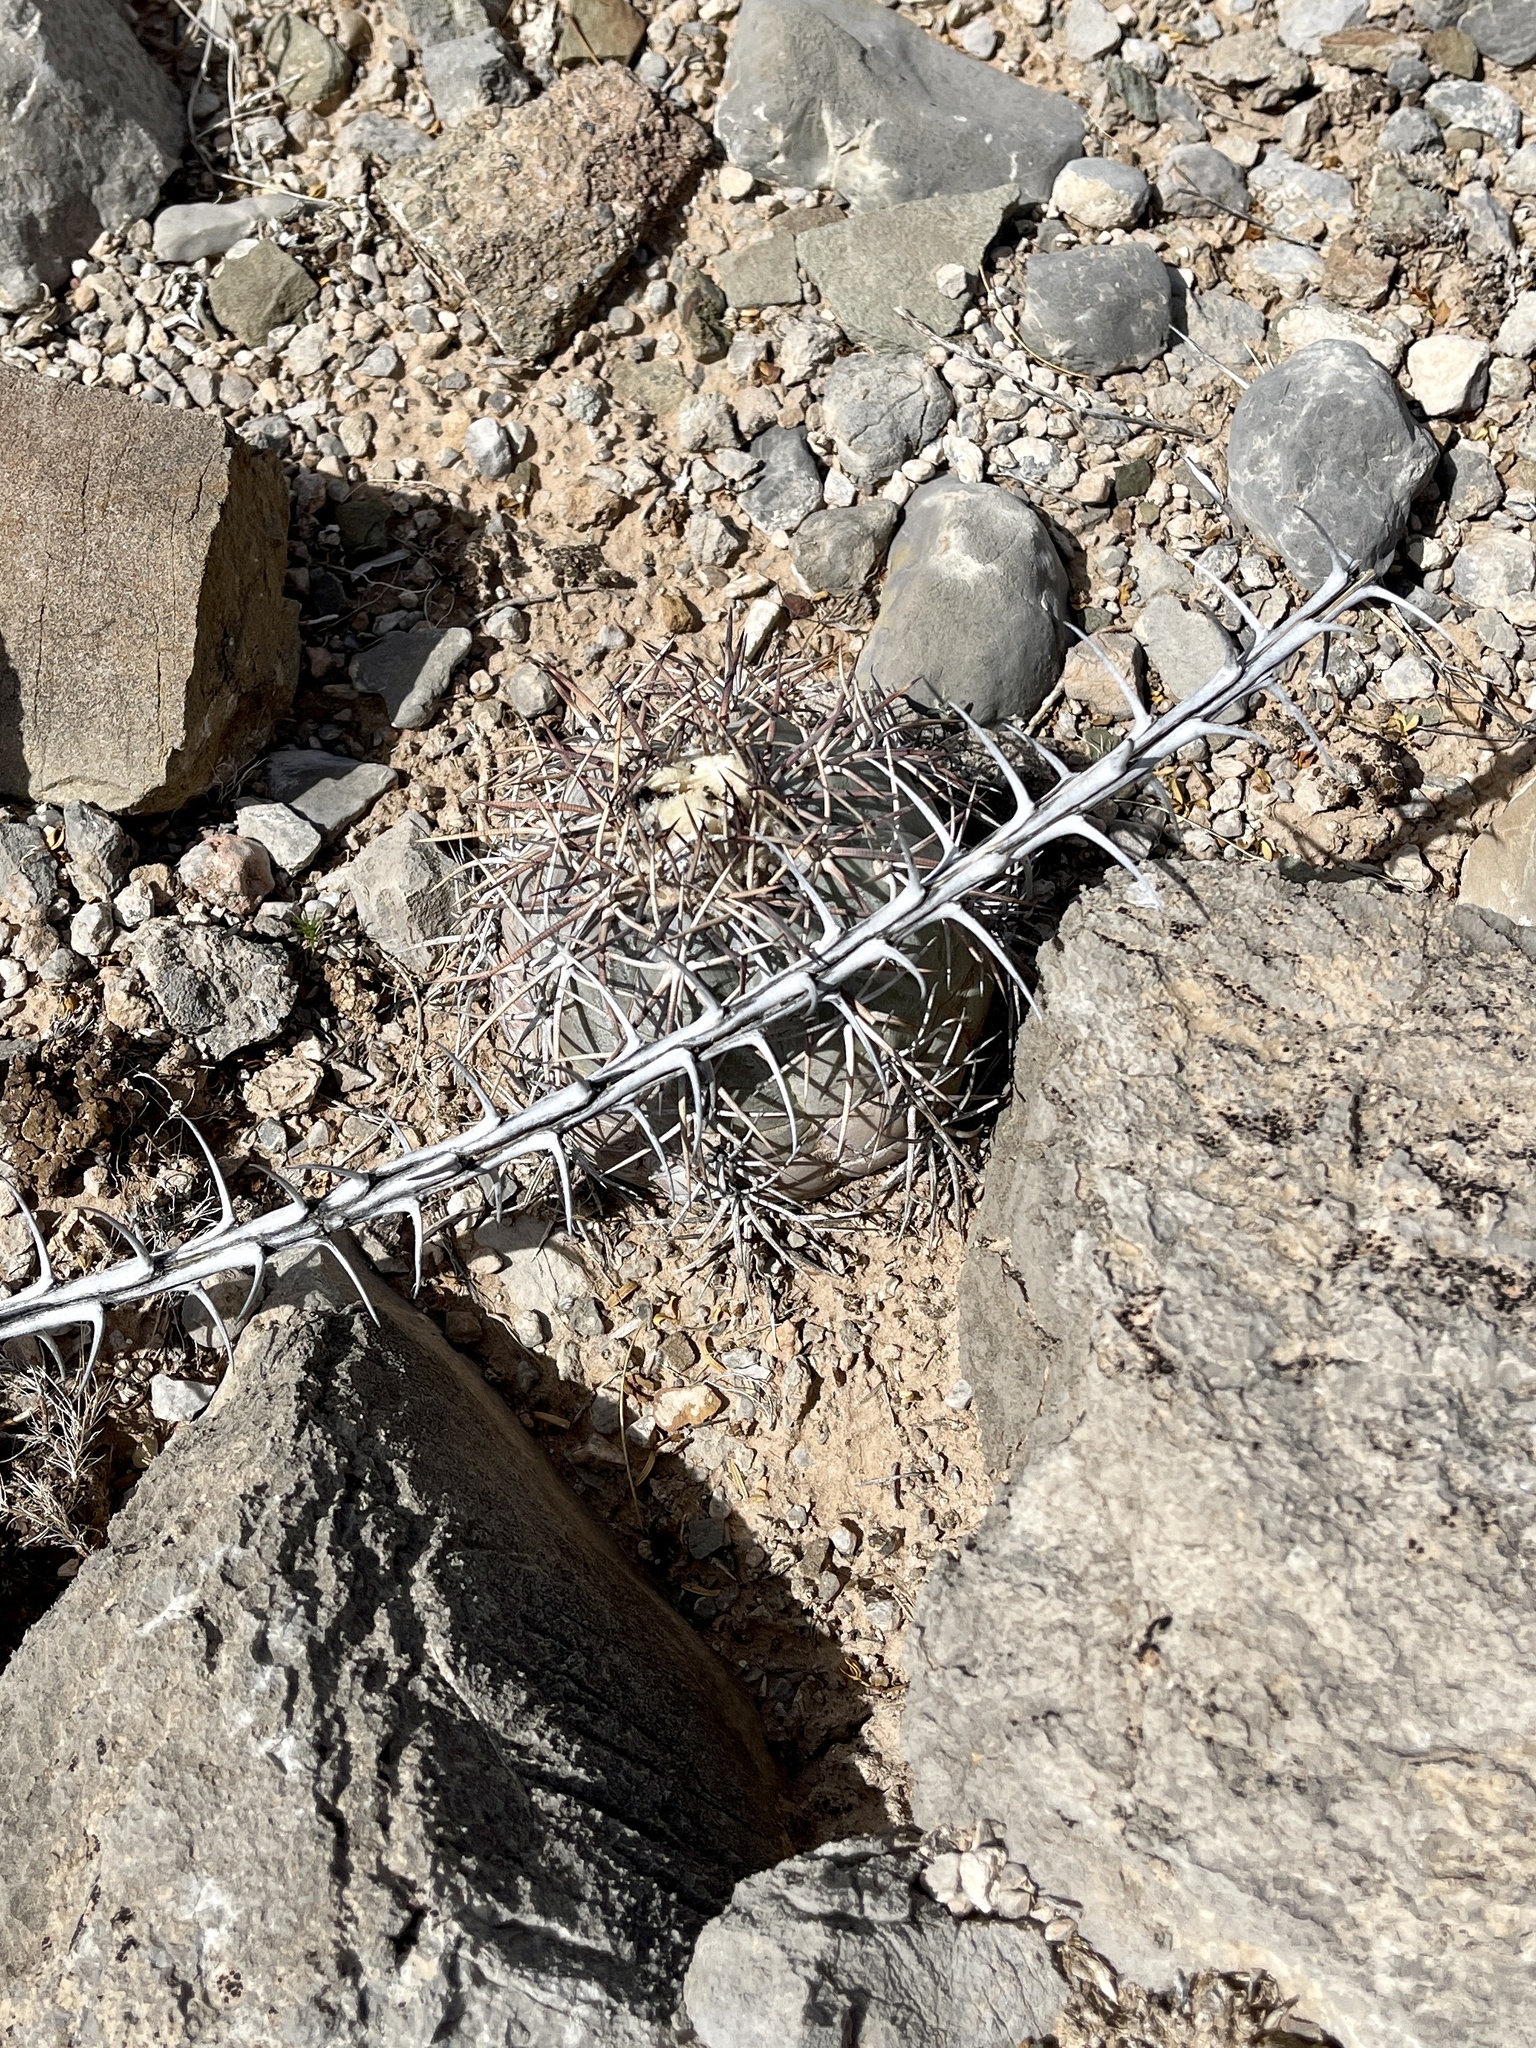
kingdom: Plantae
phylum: Tracheophyta
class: Magnoliopsida
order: Caryophyllales
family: Cactaceae
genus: Echinocactus
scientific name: Echinocactus horizonthalonius
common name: Devilshead
